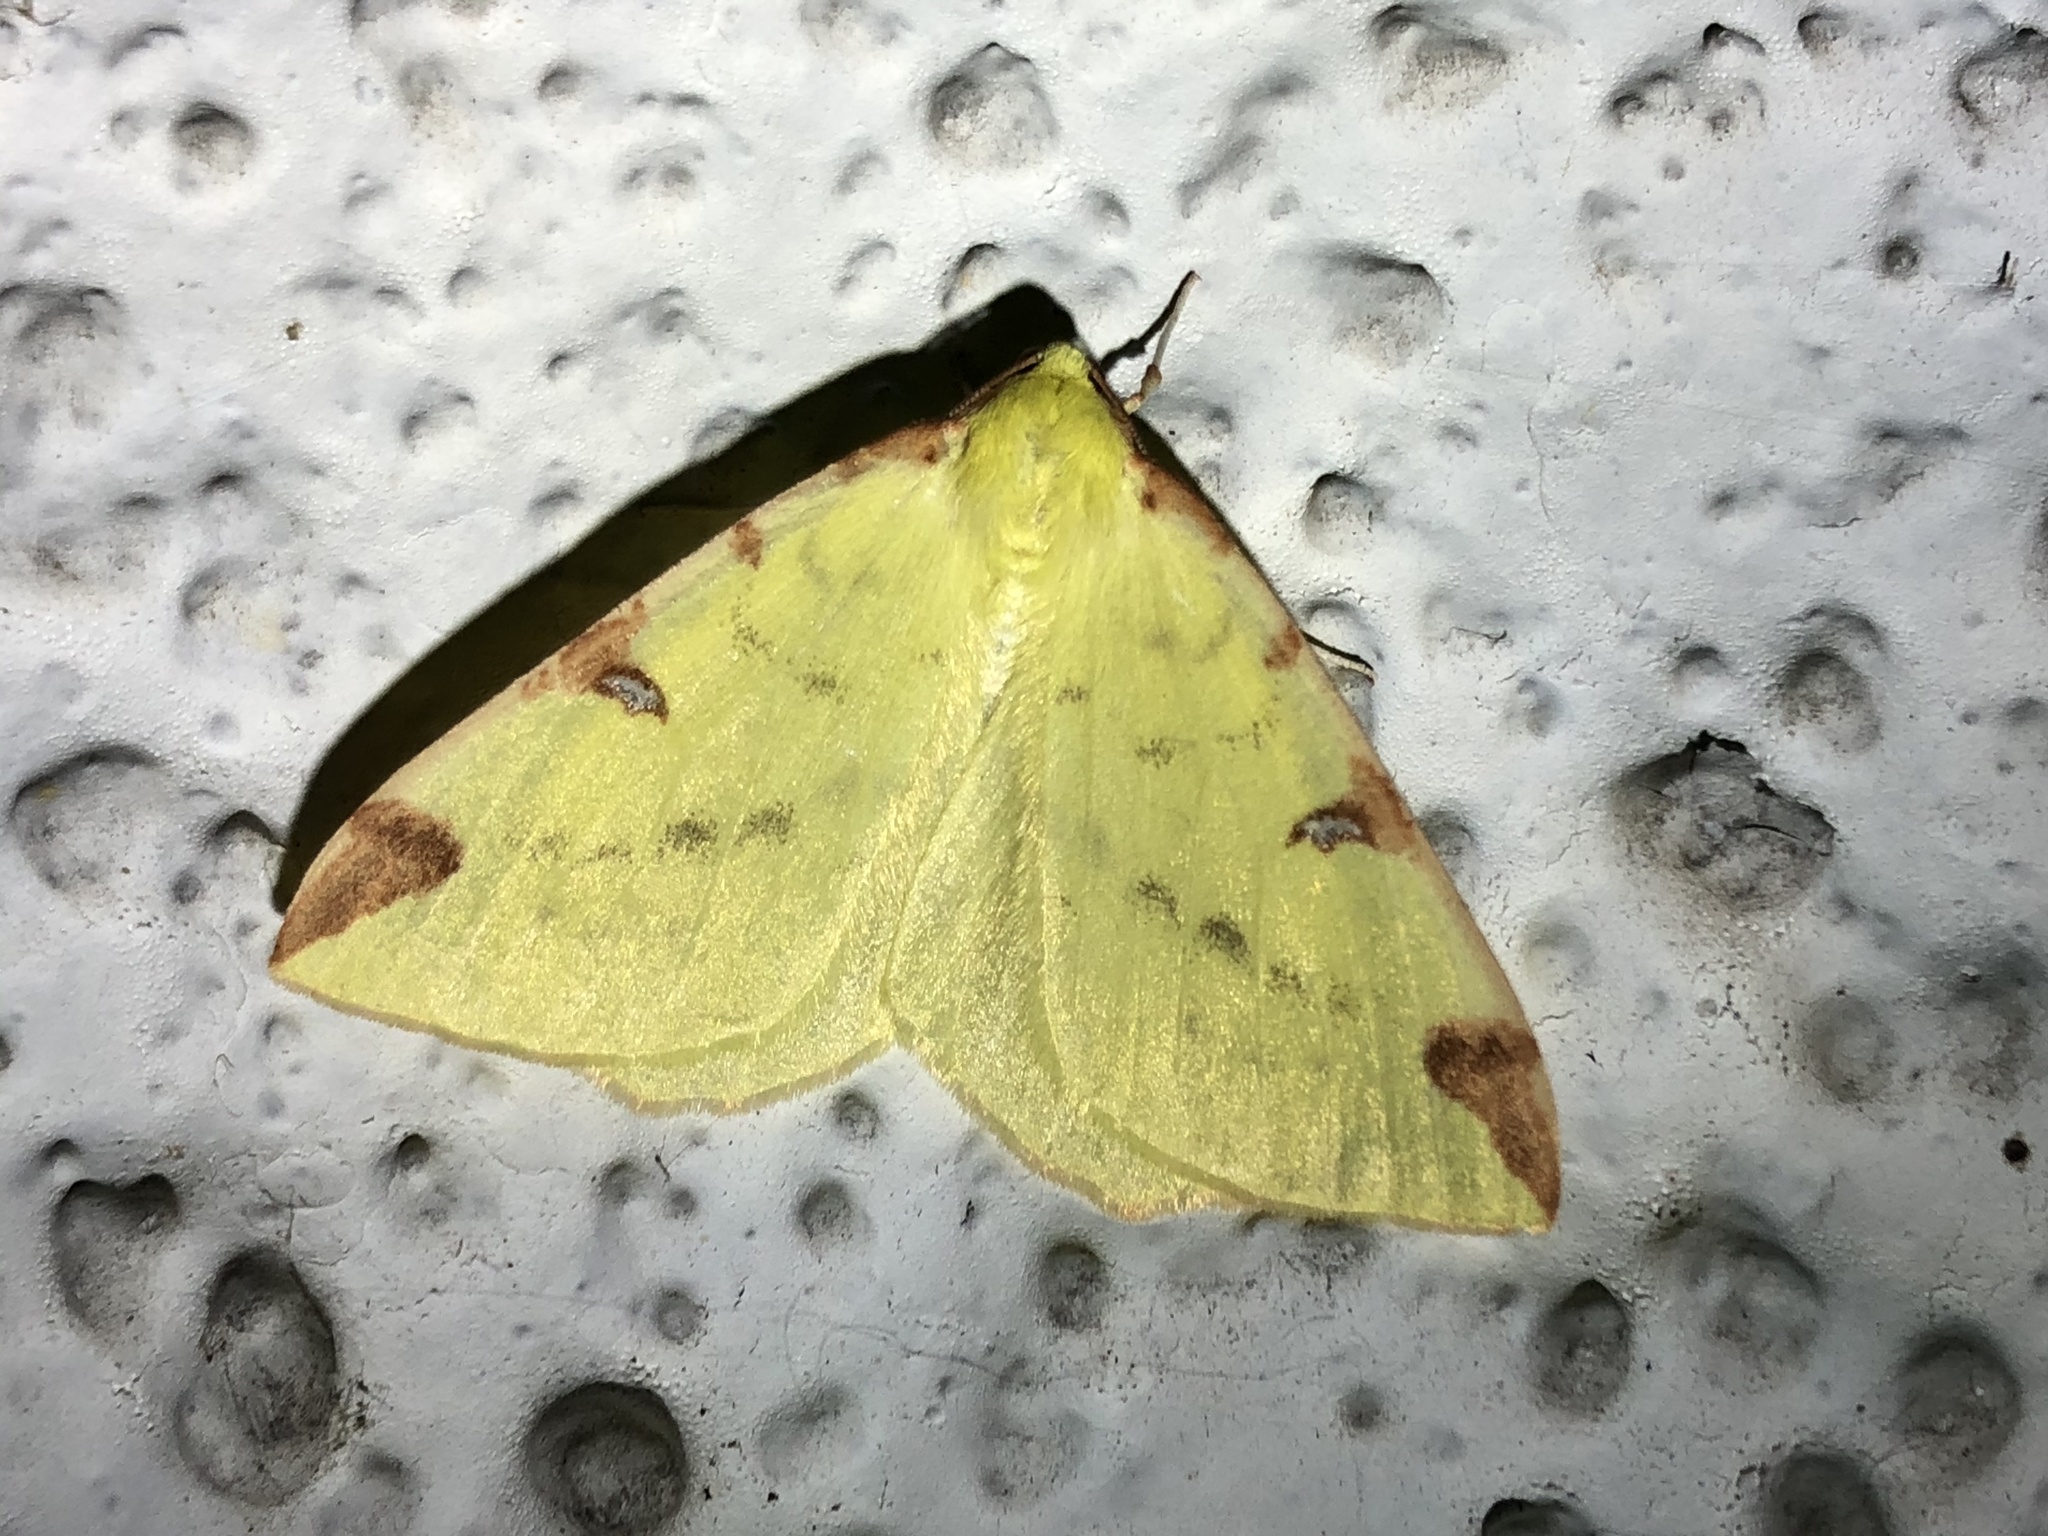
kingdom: Animalia
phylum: Arthropoda
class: Insecta
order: Lepidoptera
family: Geometridae
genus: Opisthograptis
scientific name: Opisthograptis luteolata
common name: Brimstone moth
